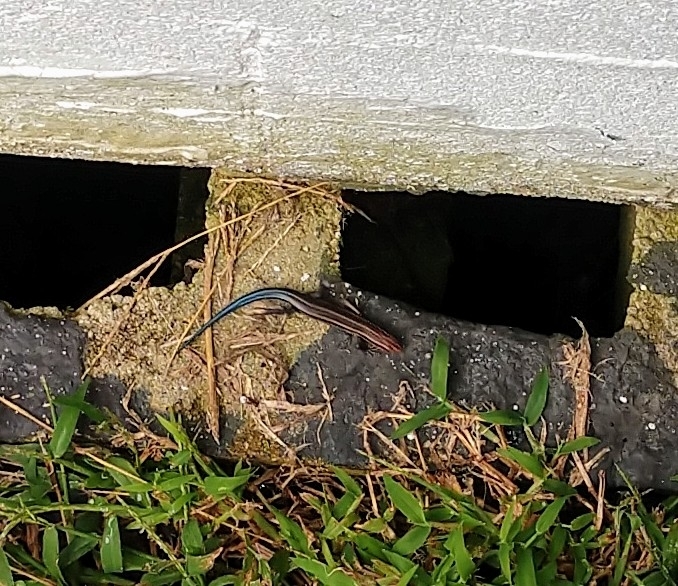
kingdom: Animalia
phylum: Chordata
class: Squamata
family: Scincidae
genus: Plestiodon
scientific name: Plestiodon inexpectatus
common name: Southeastern five-lined skink
